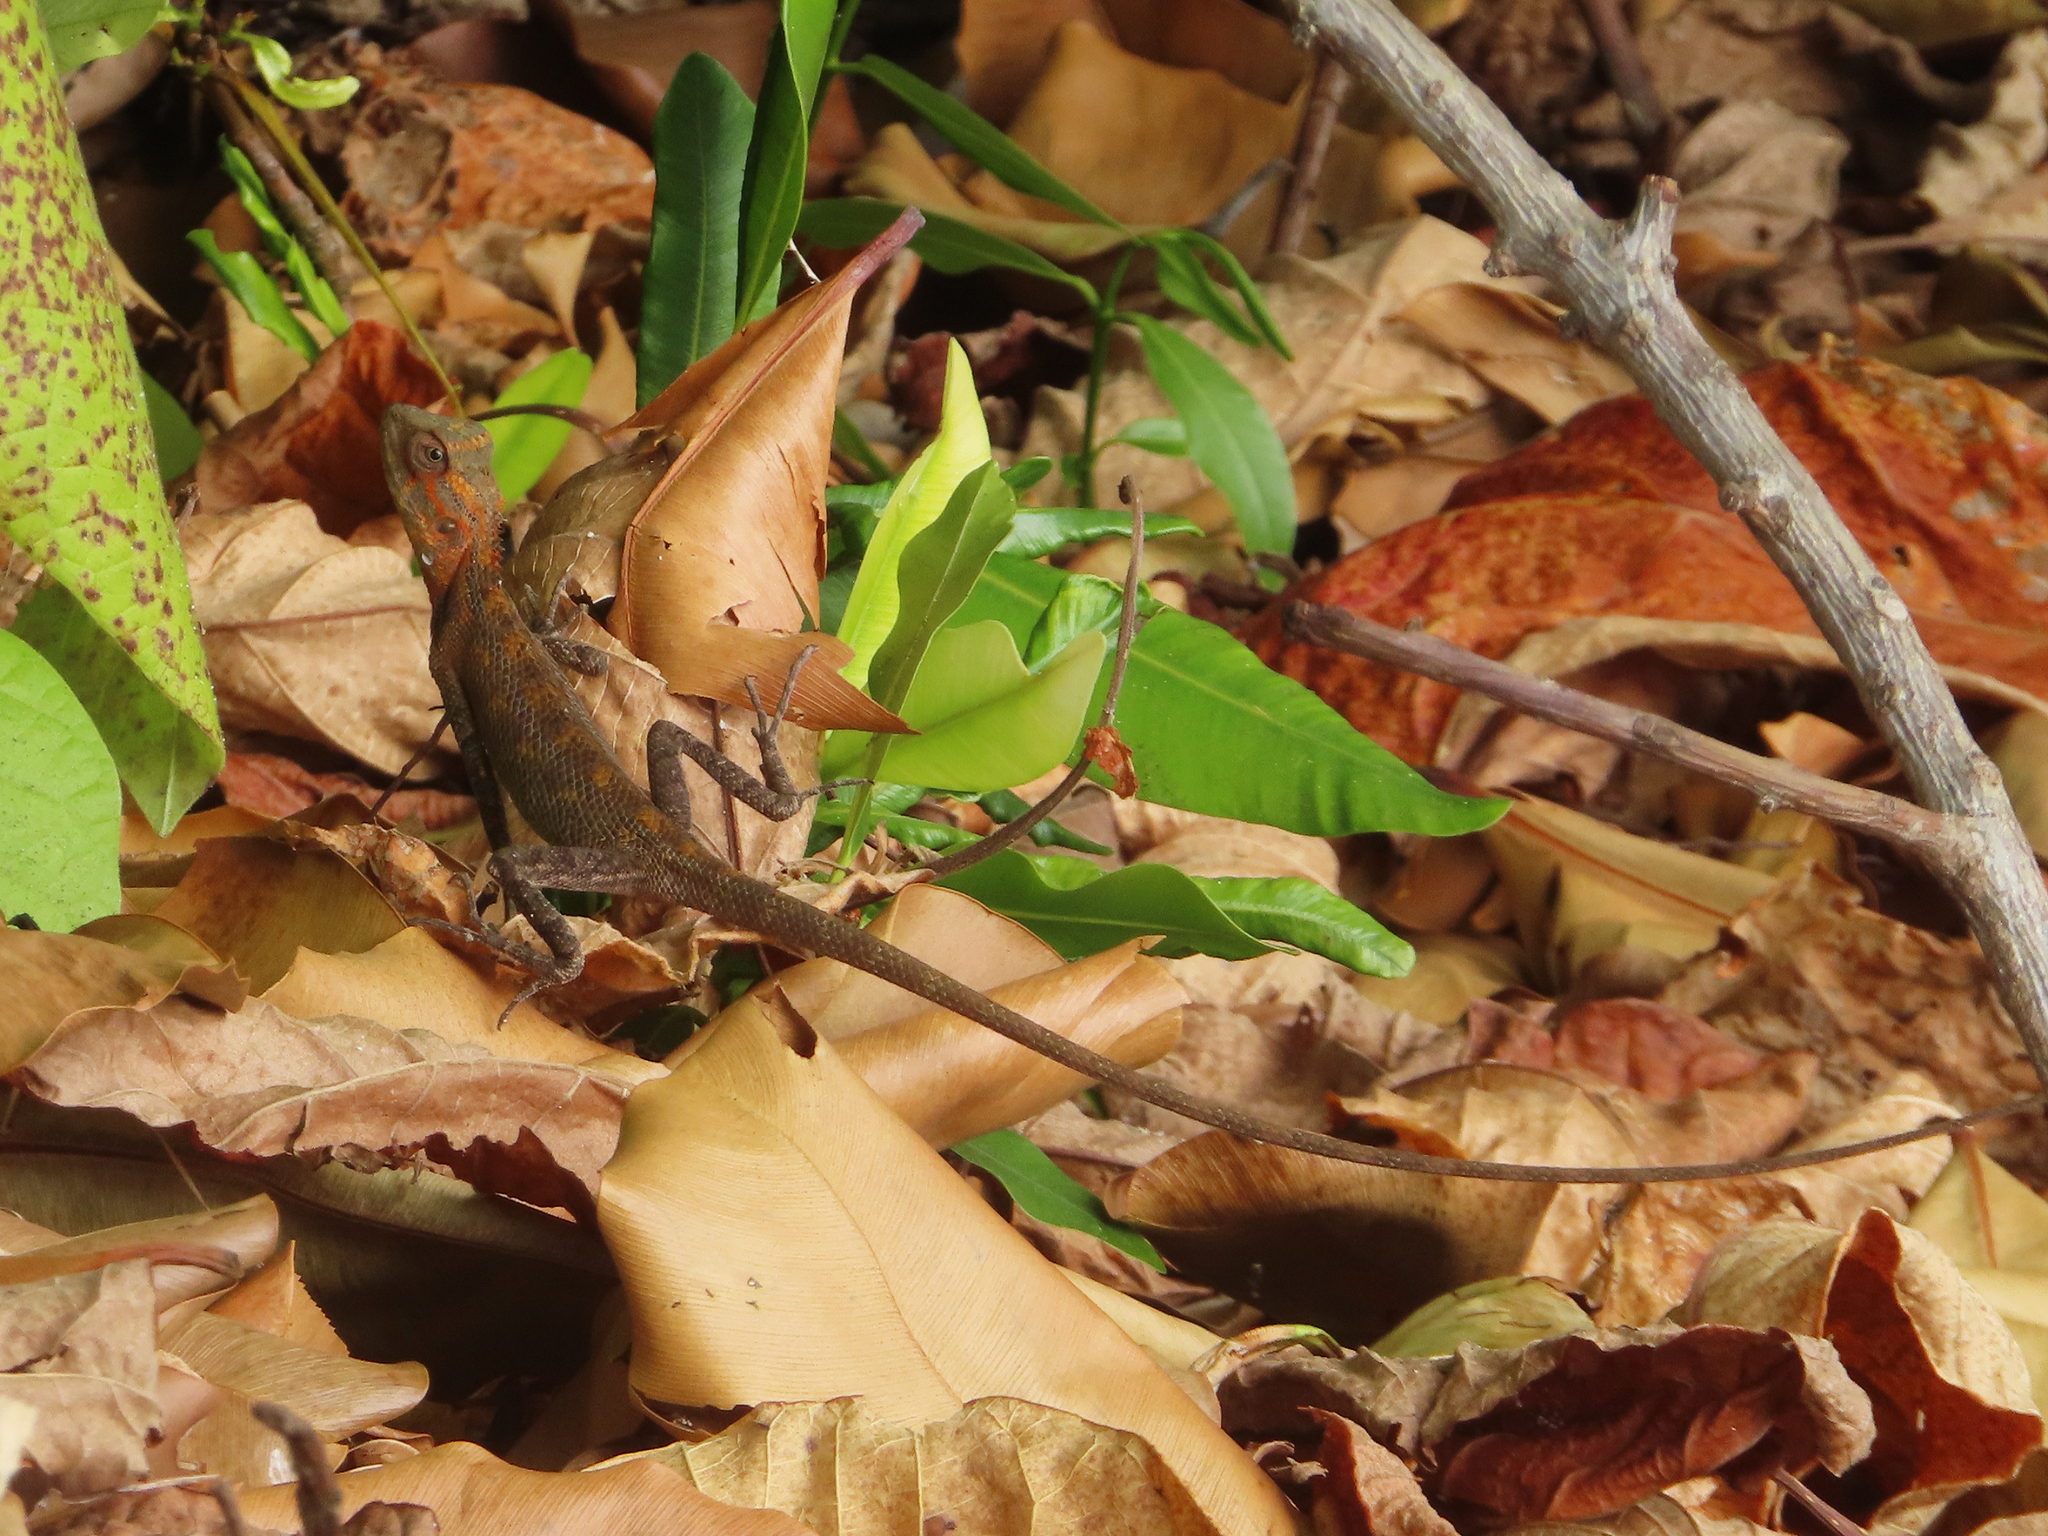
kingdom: Animalia
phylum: Chordata
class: Squamata
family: Agamidae
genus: Calotes
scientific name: Calotes versicolor
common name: Oriental garden lizard
